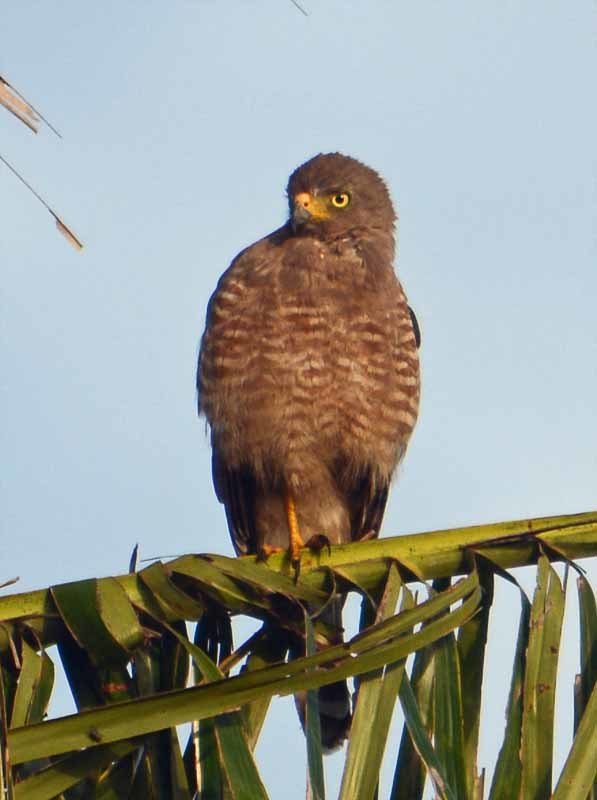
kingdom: Animalia
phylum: Chordata
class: Aves
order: Accipitriformes
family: Accipitridae
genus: Rupornis
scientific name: Rupornis magnirostris
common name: Roadside hawk
